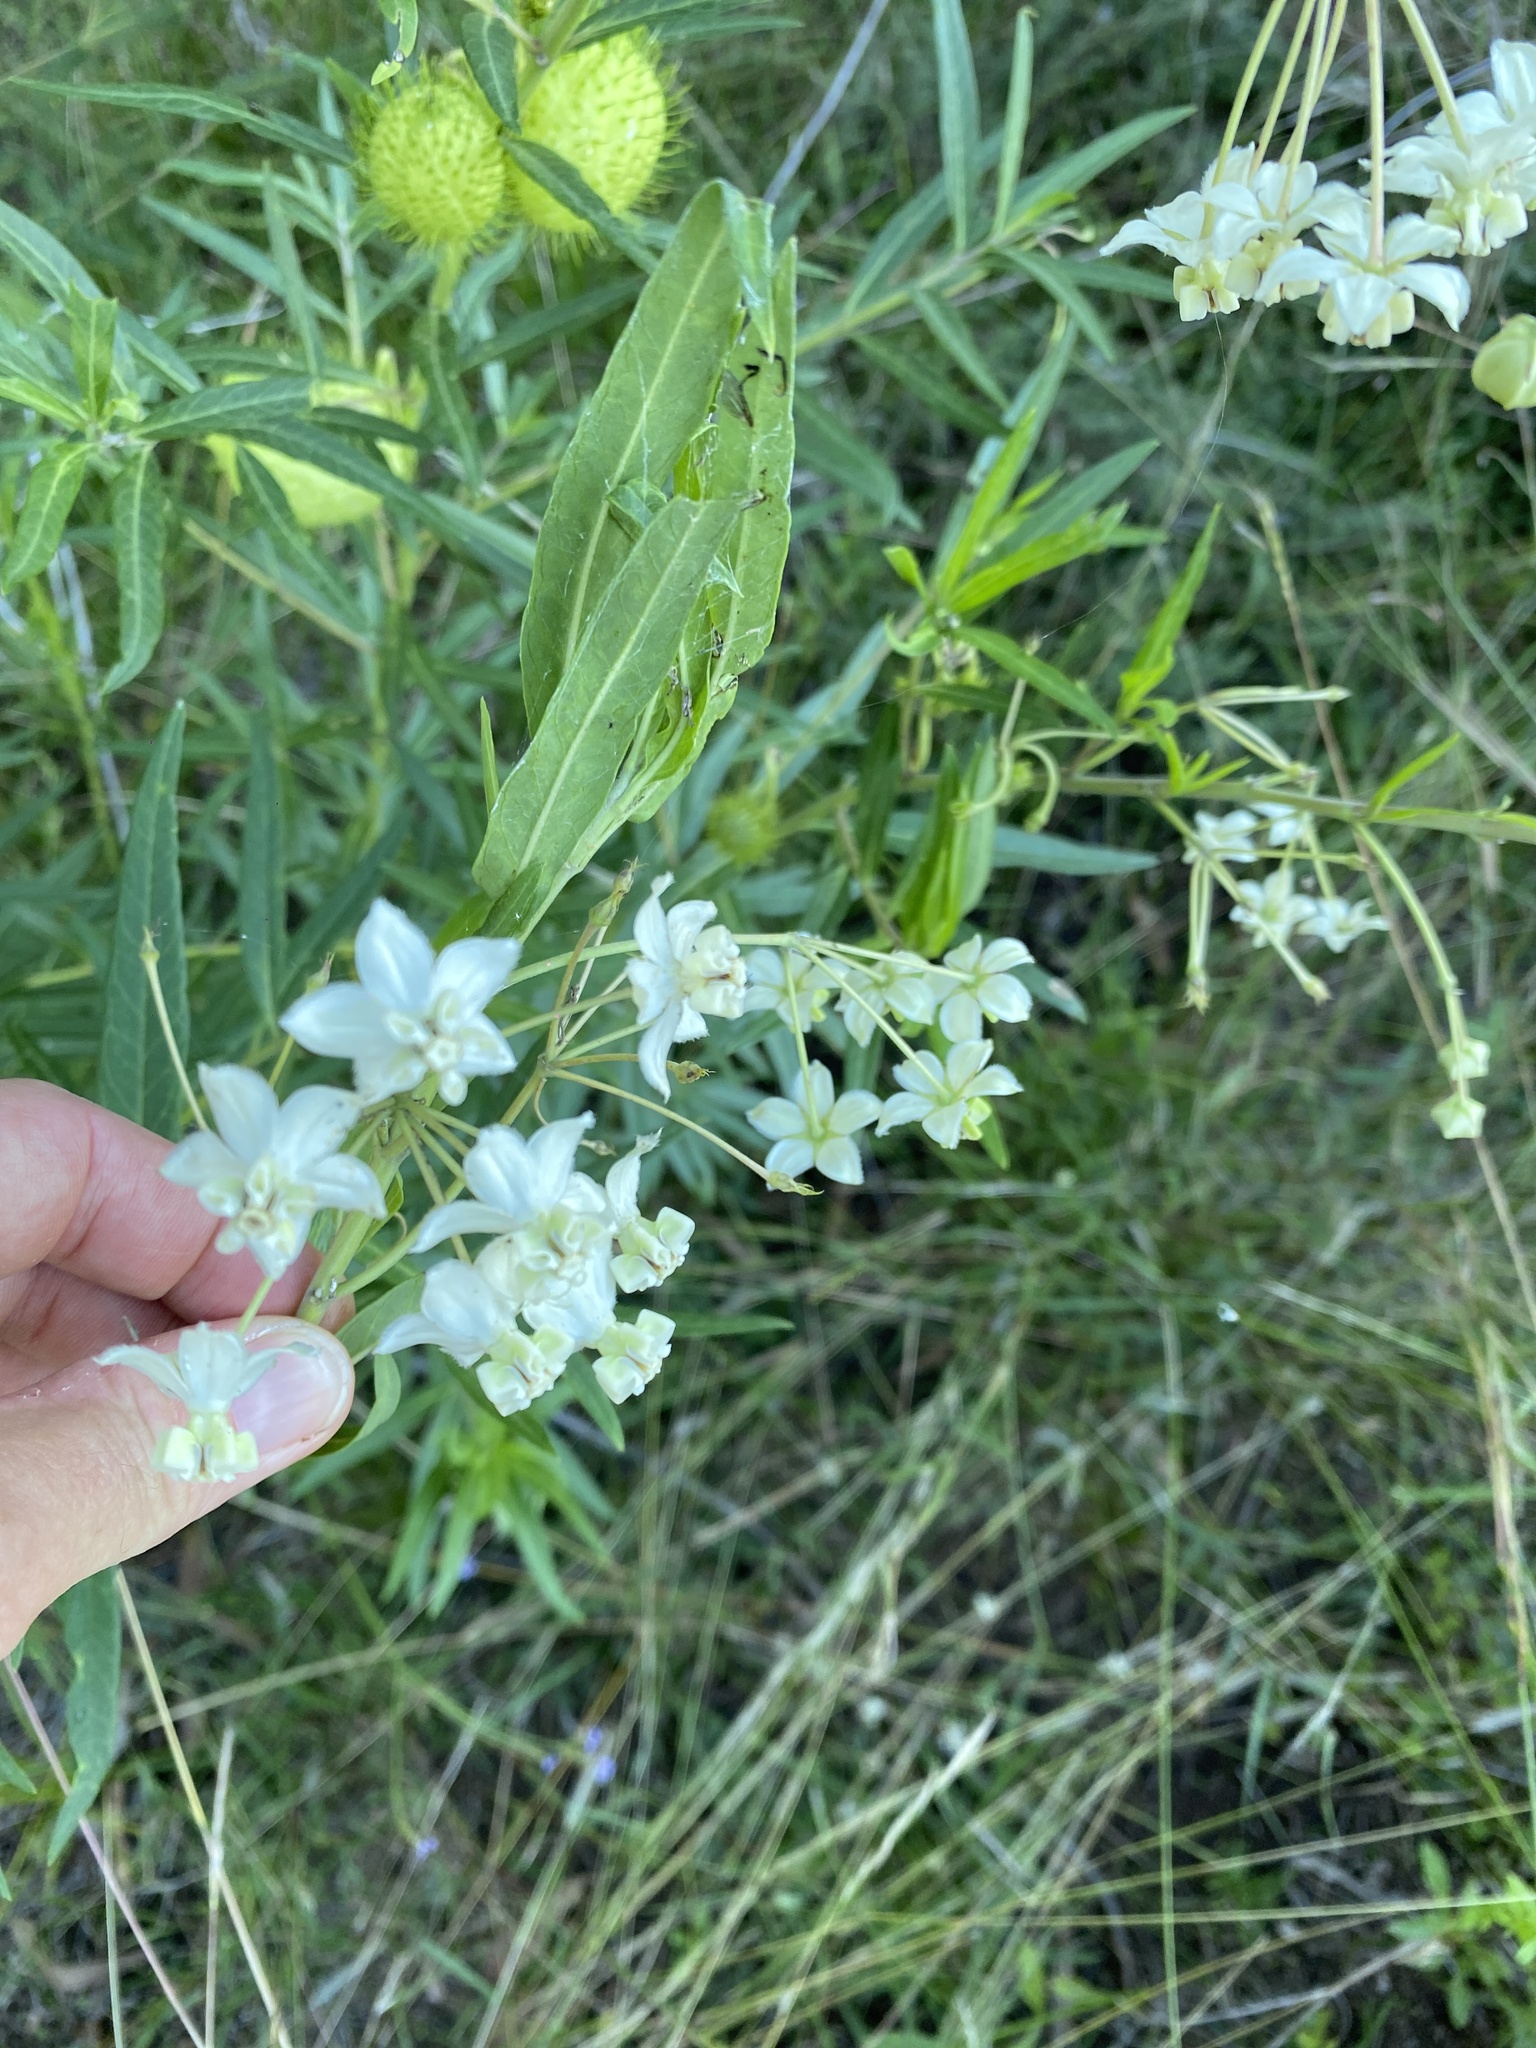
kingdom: Plantae
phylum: Tracheophyta
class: Magnoliopsida
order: Gentianales
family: Apocynaceae
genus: Gomphocarpus
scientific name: Gomphocarpus physocarpus
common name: Balloon cotton bush
